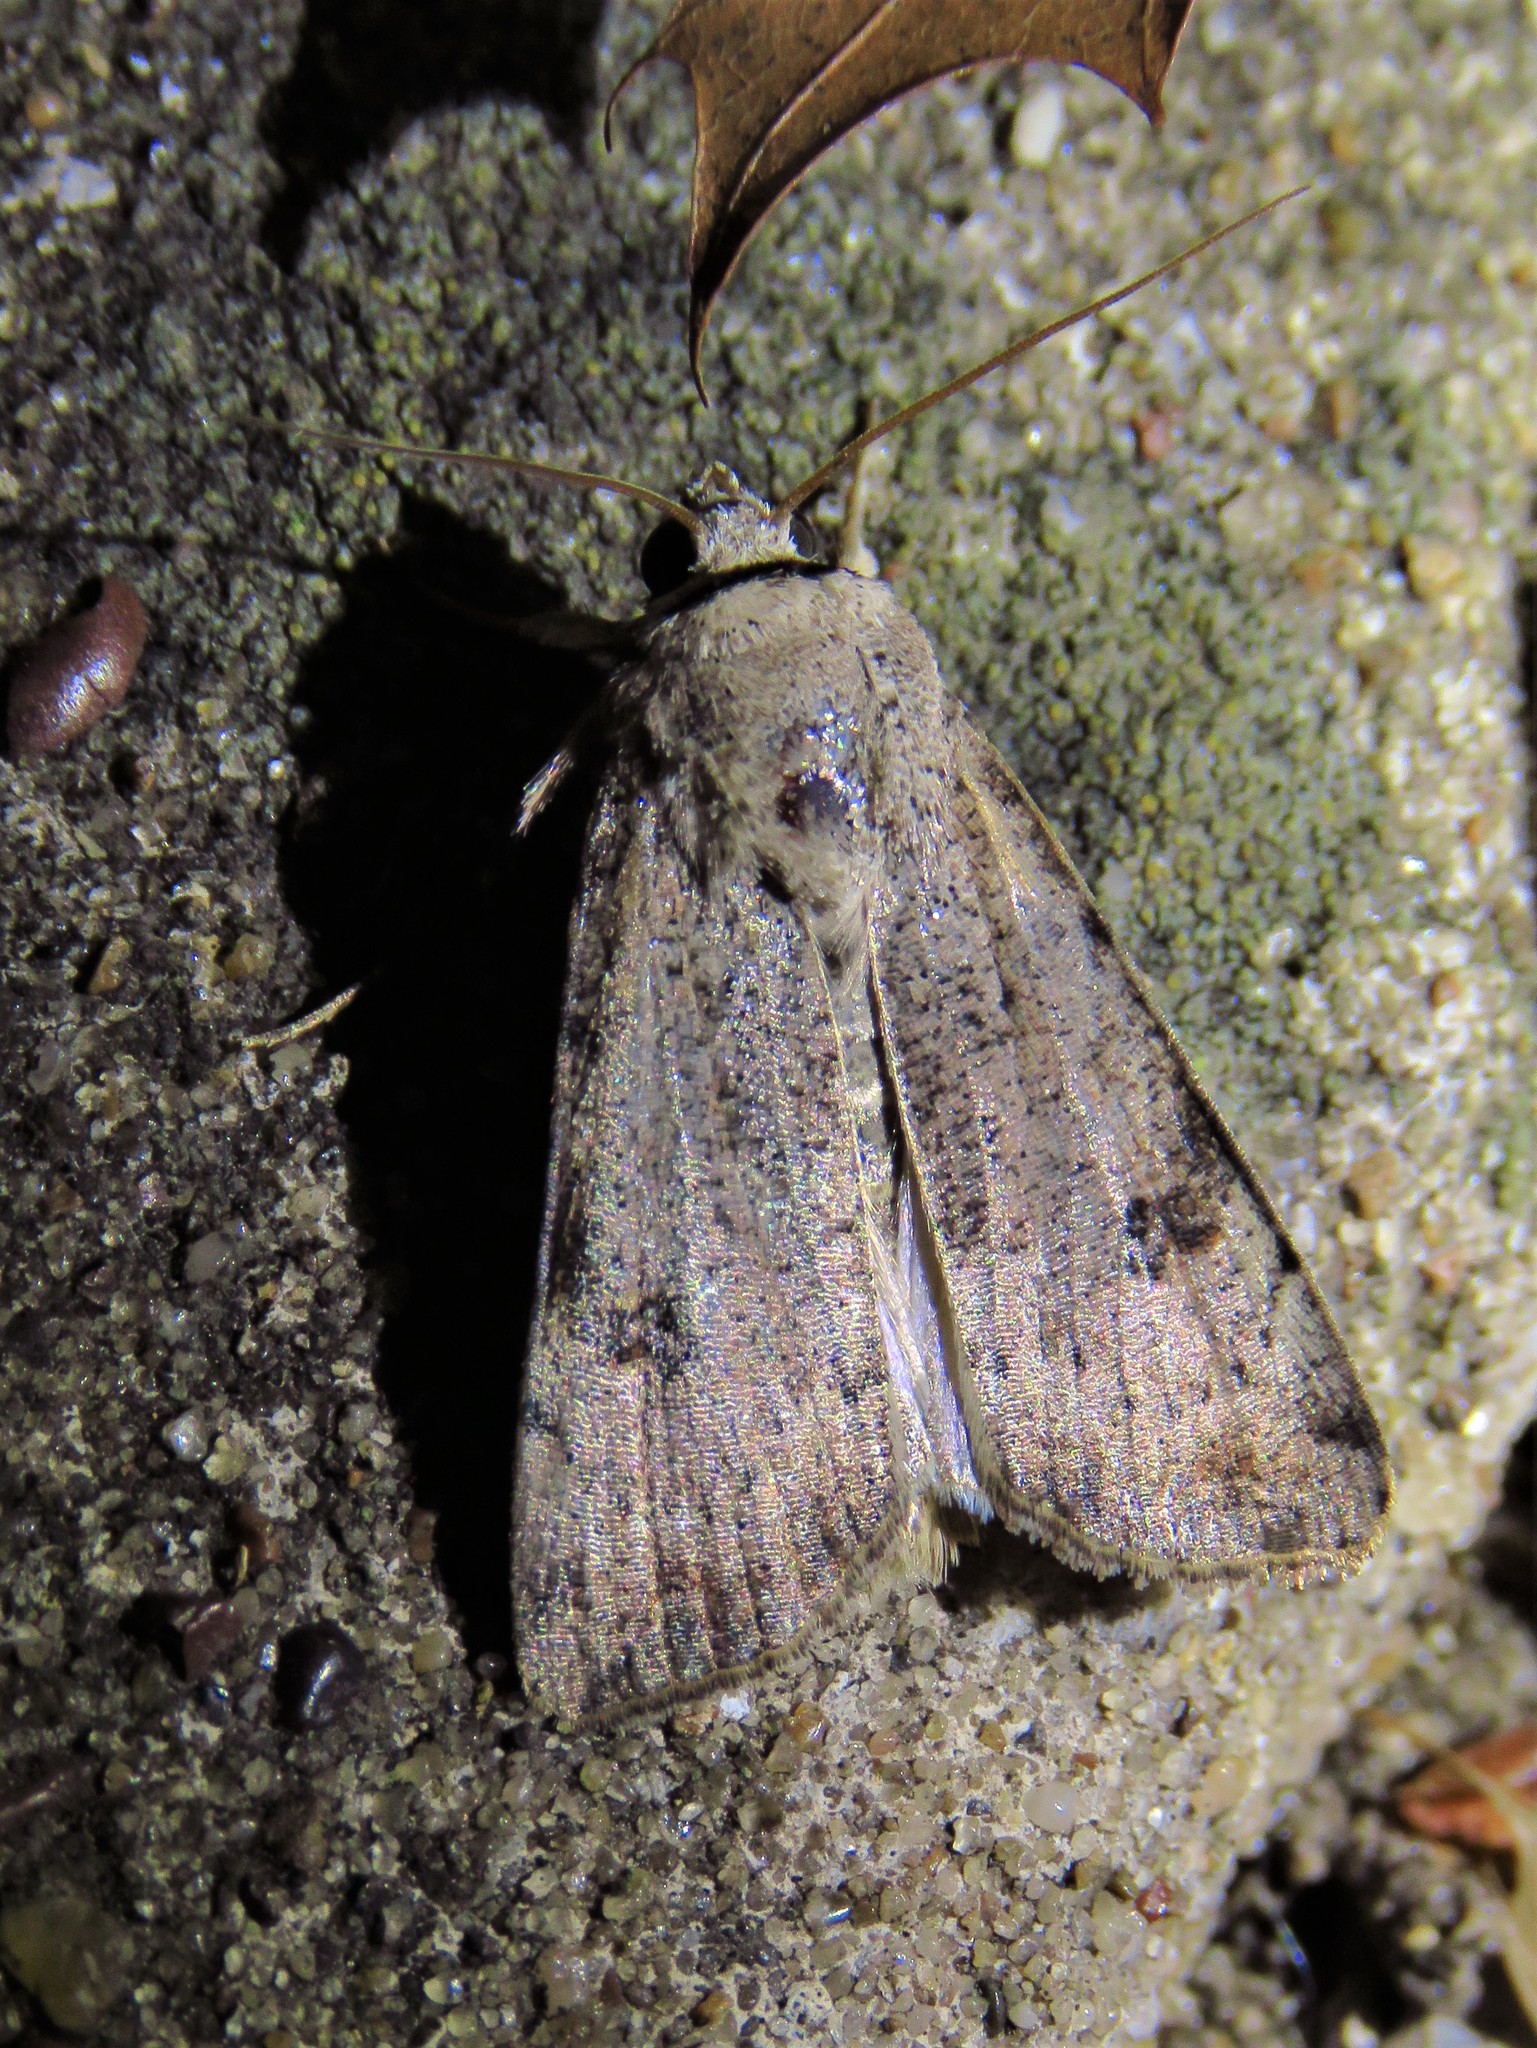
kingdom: Animalia
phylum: Arthropoda
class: Insecta
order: Lepidoptera
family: Noctuidae
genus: Anicla
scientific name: Anicla infecta
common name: Green cutworm
